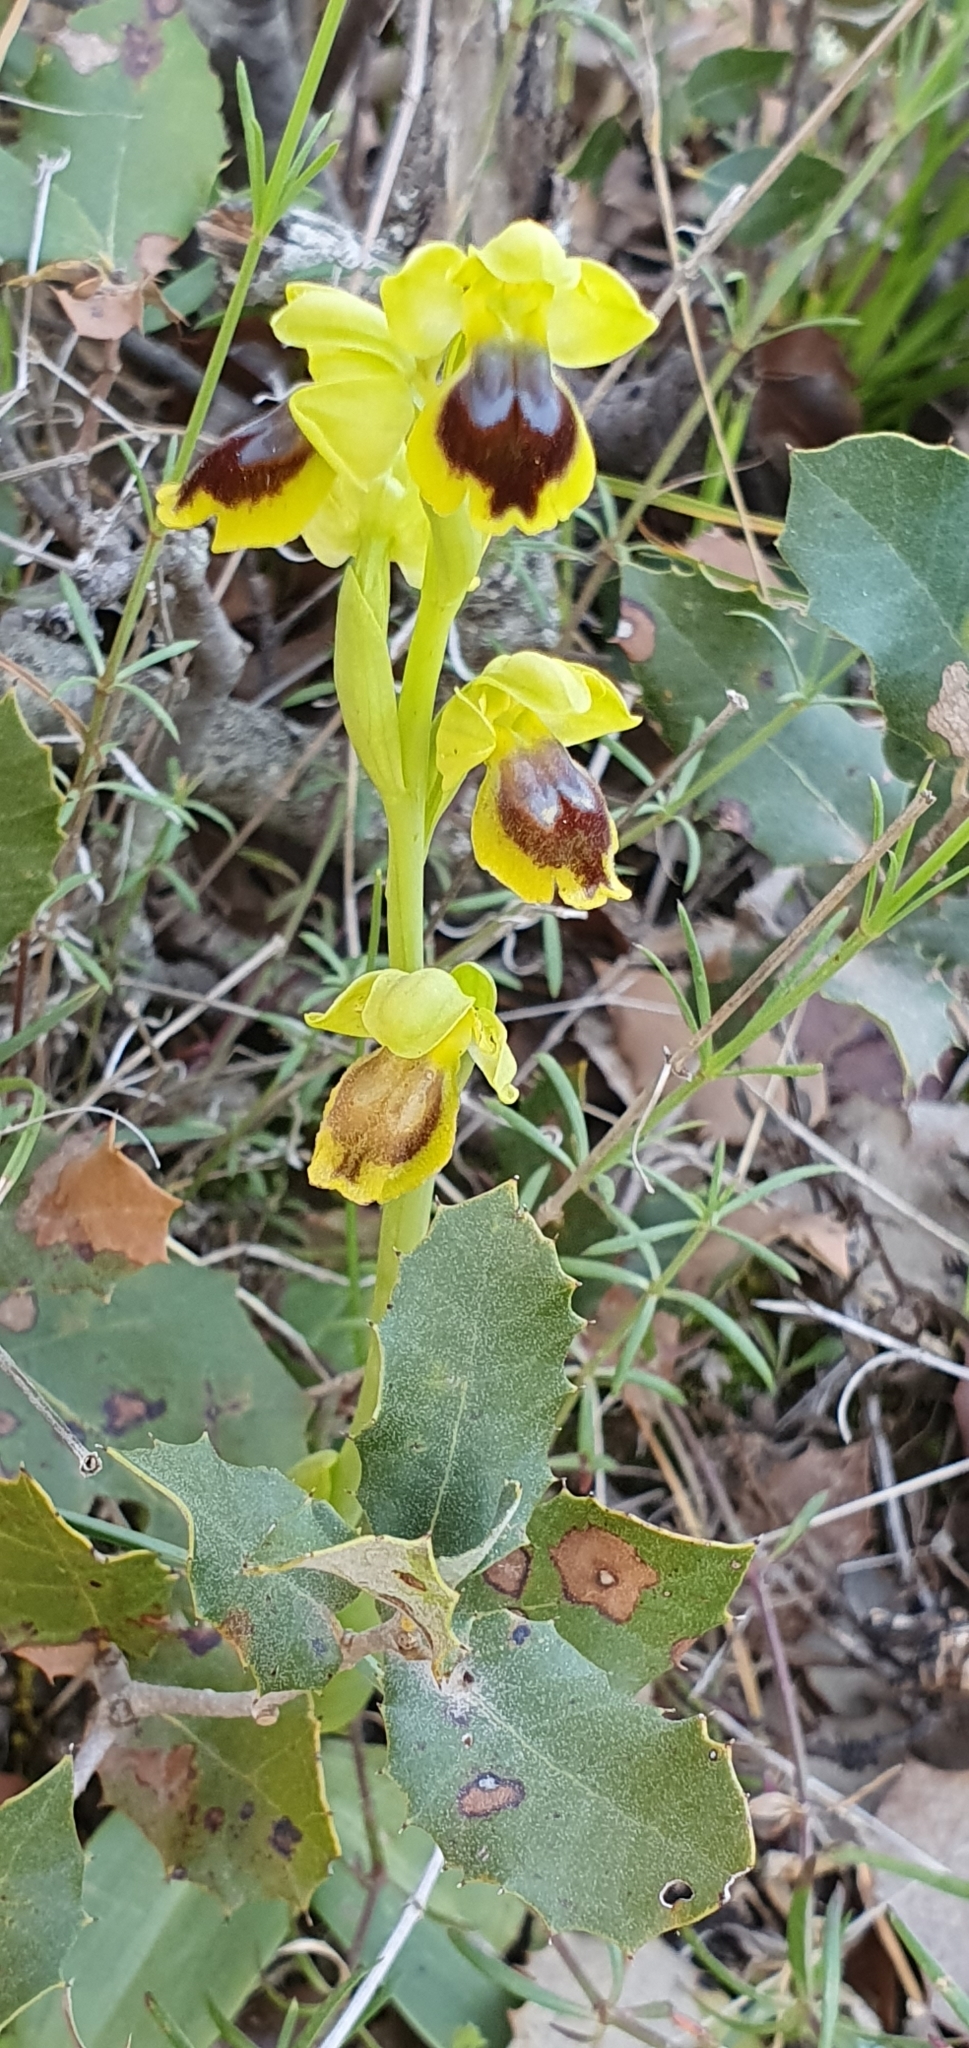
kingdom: Plantae
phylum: Tracheophyta
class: Liliopsida
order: Asparagales
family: Orchidaceae
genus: Ophrys
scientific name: Ophrys battandieri
